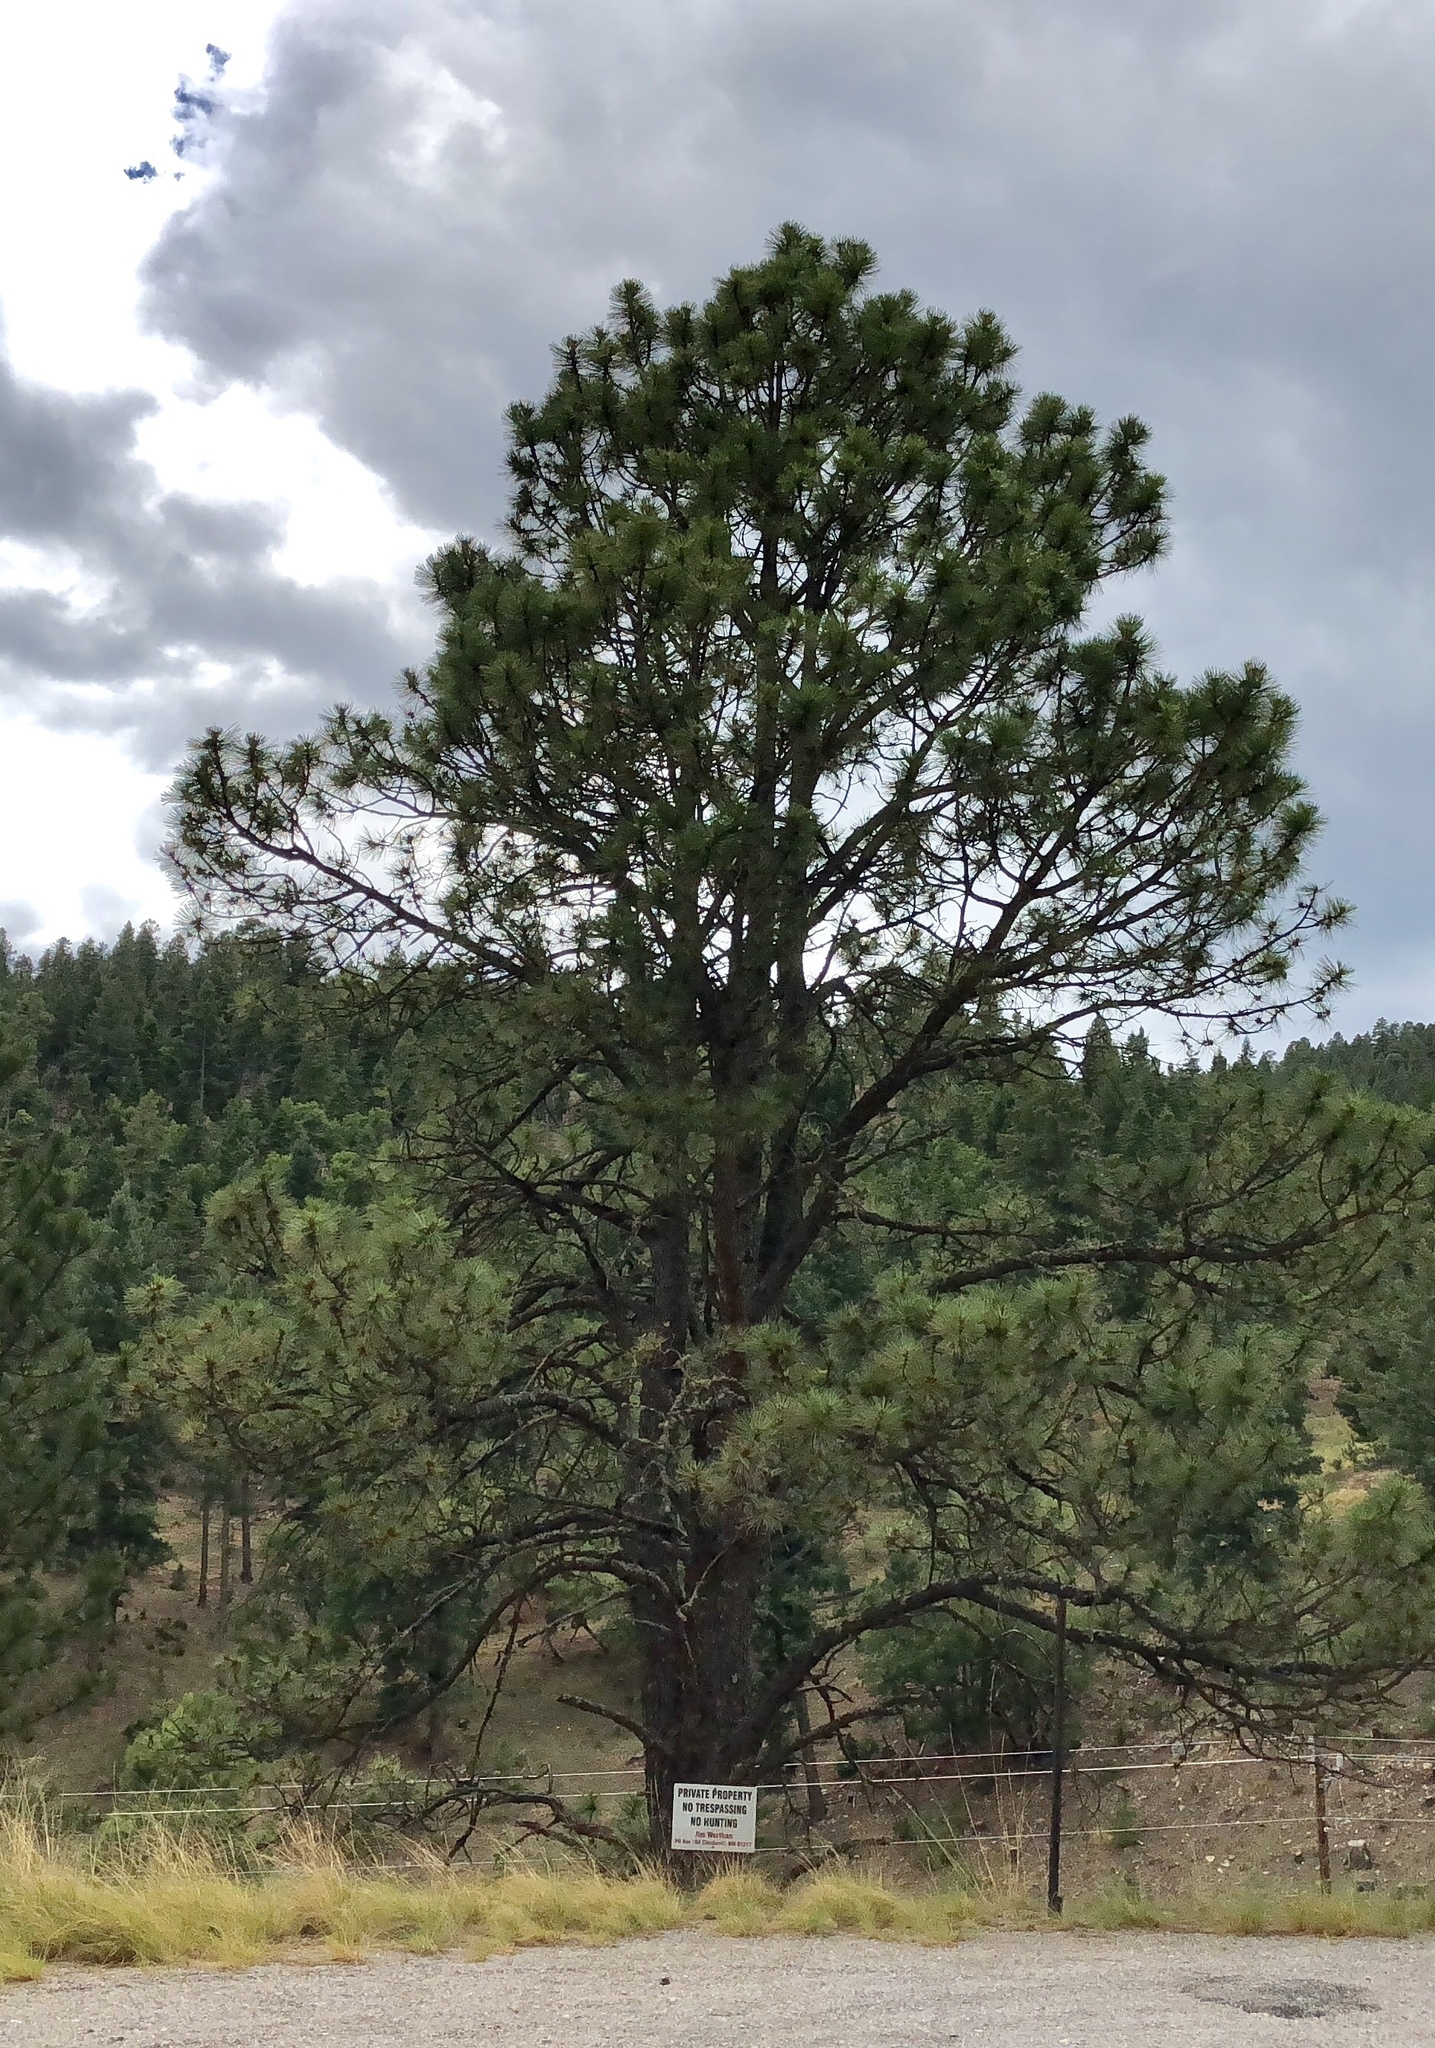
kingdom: Plantae
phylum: Tracheophyta
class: Pinopsida
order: Pinales
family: Pinaceae
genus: Pinus
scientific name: Pinus ponderosa
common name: Western yellow-pine
